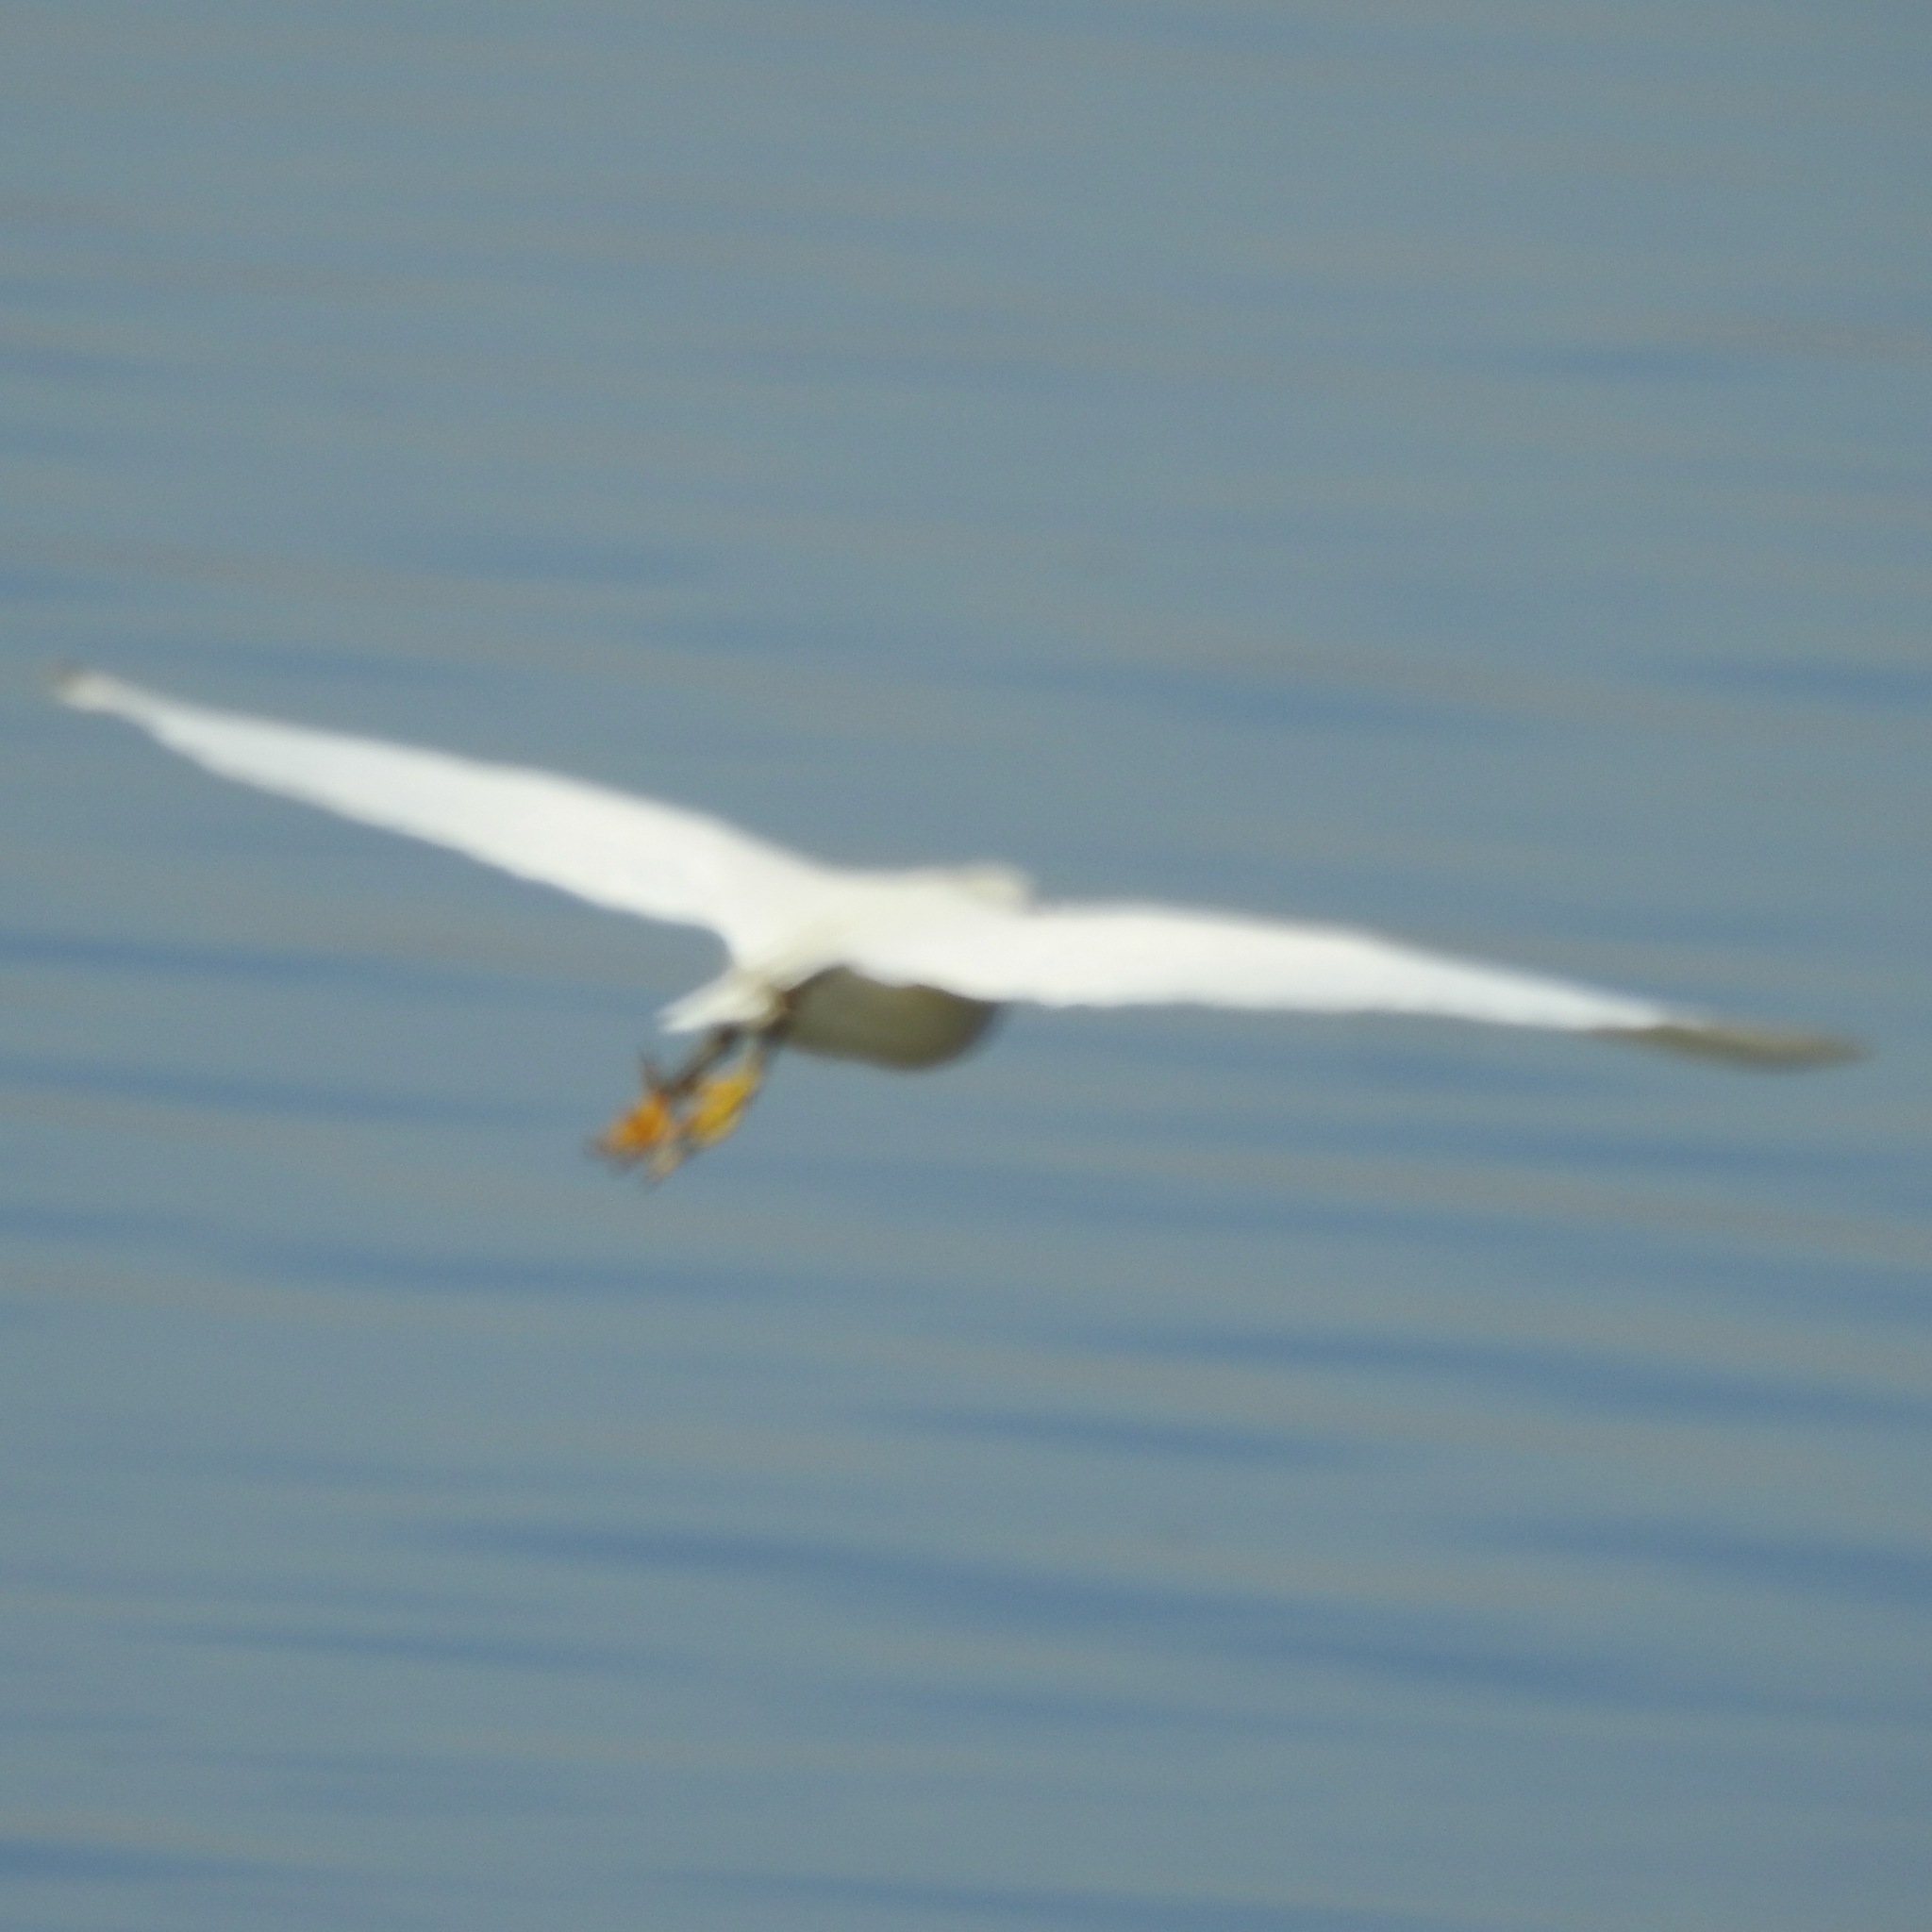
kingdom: Animalia
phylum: Chordata
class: Aves
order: Pelecaniformes
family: Ardeidae
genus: Egretta
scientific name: Egretta thula
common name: Snowy egret
